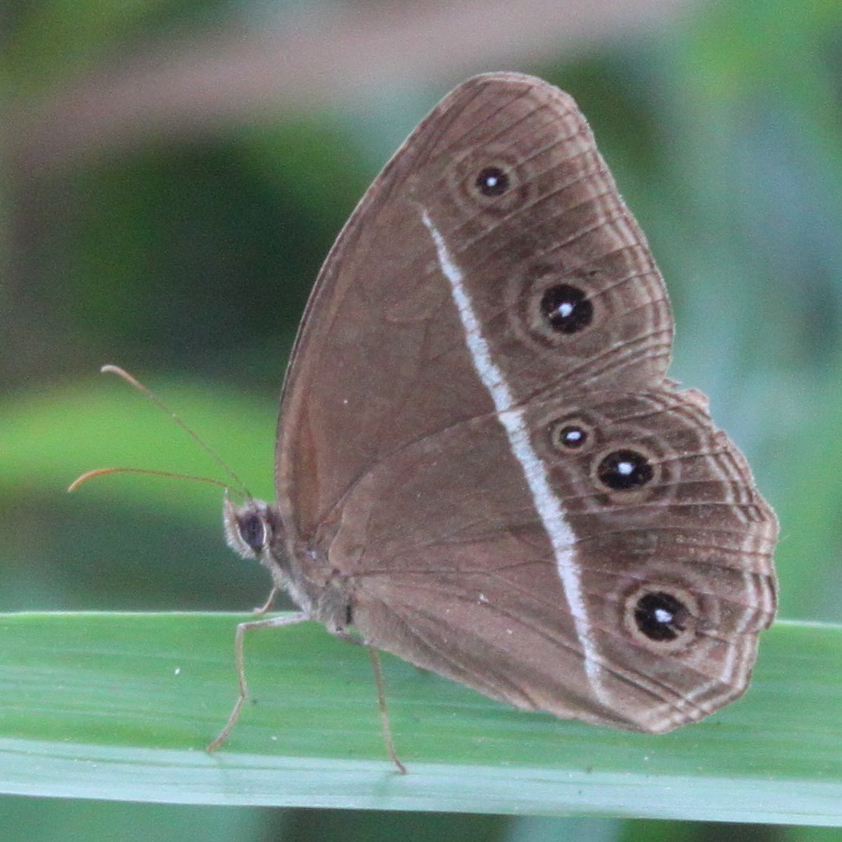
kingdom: Animalia
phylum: Arthropoda
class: Insecta
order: Lepidoptera
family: Nymphalidae
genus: Orsotriaena
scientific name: Orsotriaena medus
